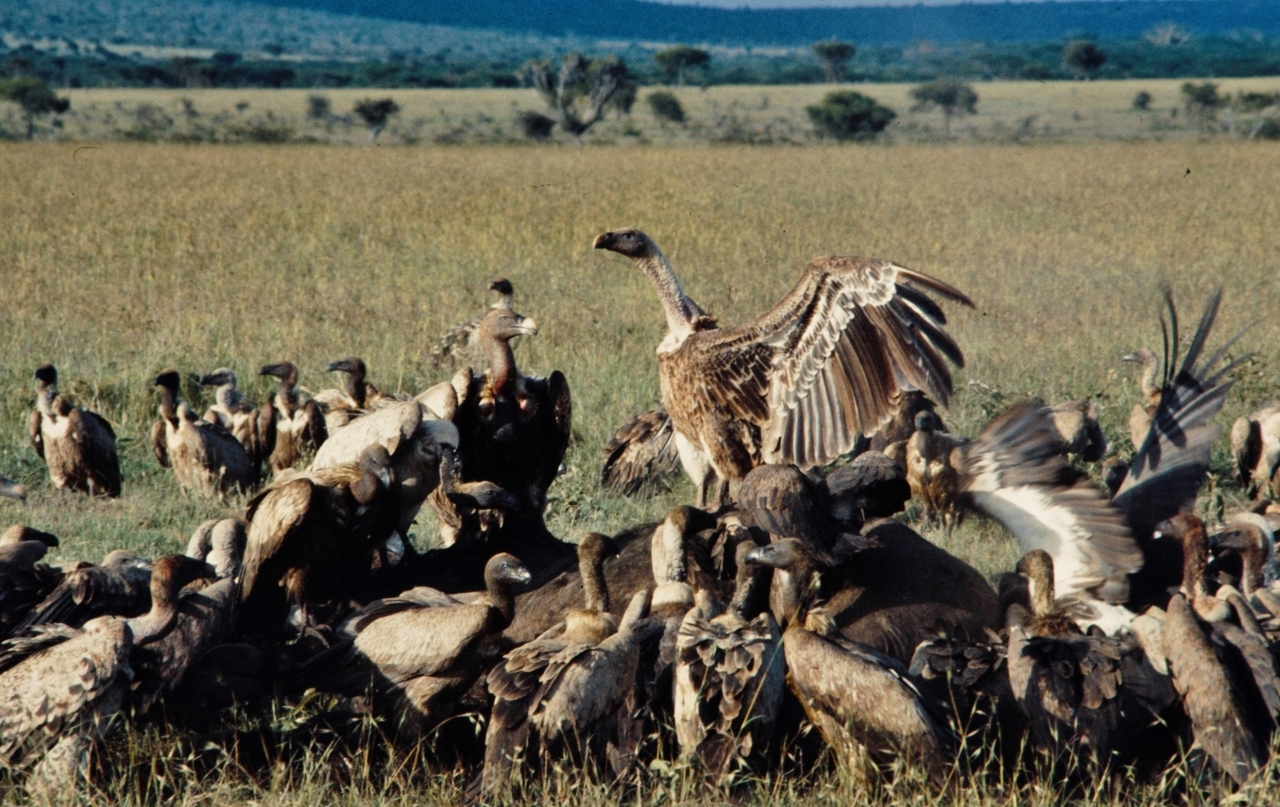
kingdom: Animalia
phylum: Chordata
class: Aves
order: Accipitriformes
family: Accipitridae
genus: Gyps
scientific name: Gyps rueppellii
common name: Rüppell's vulture
